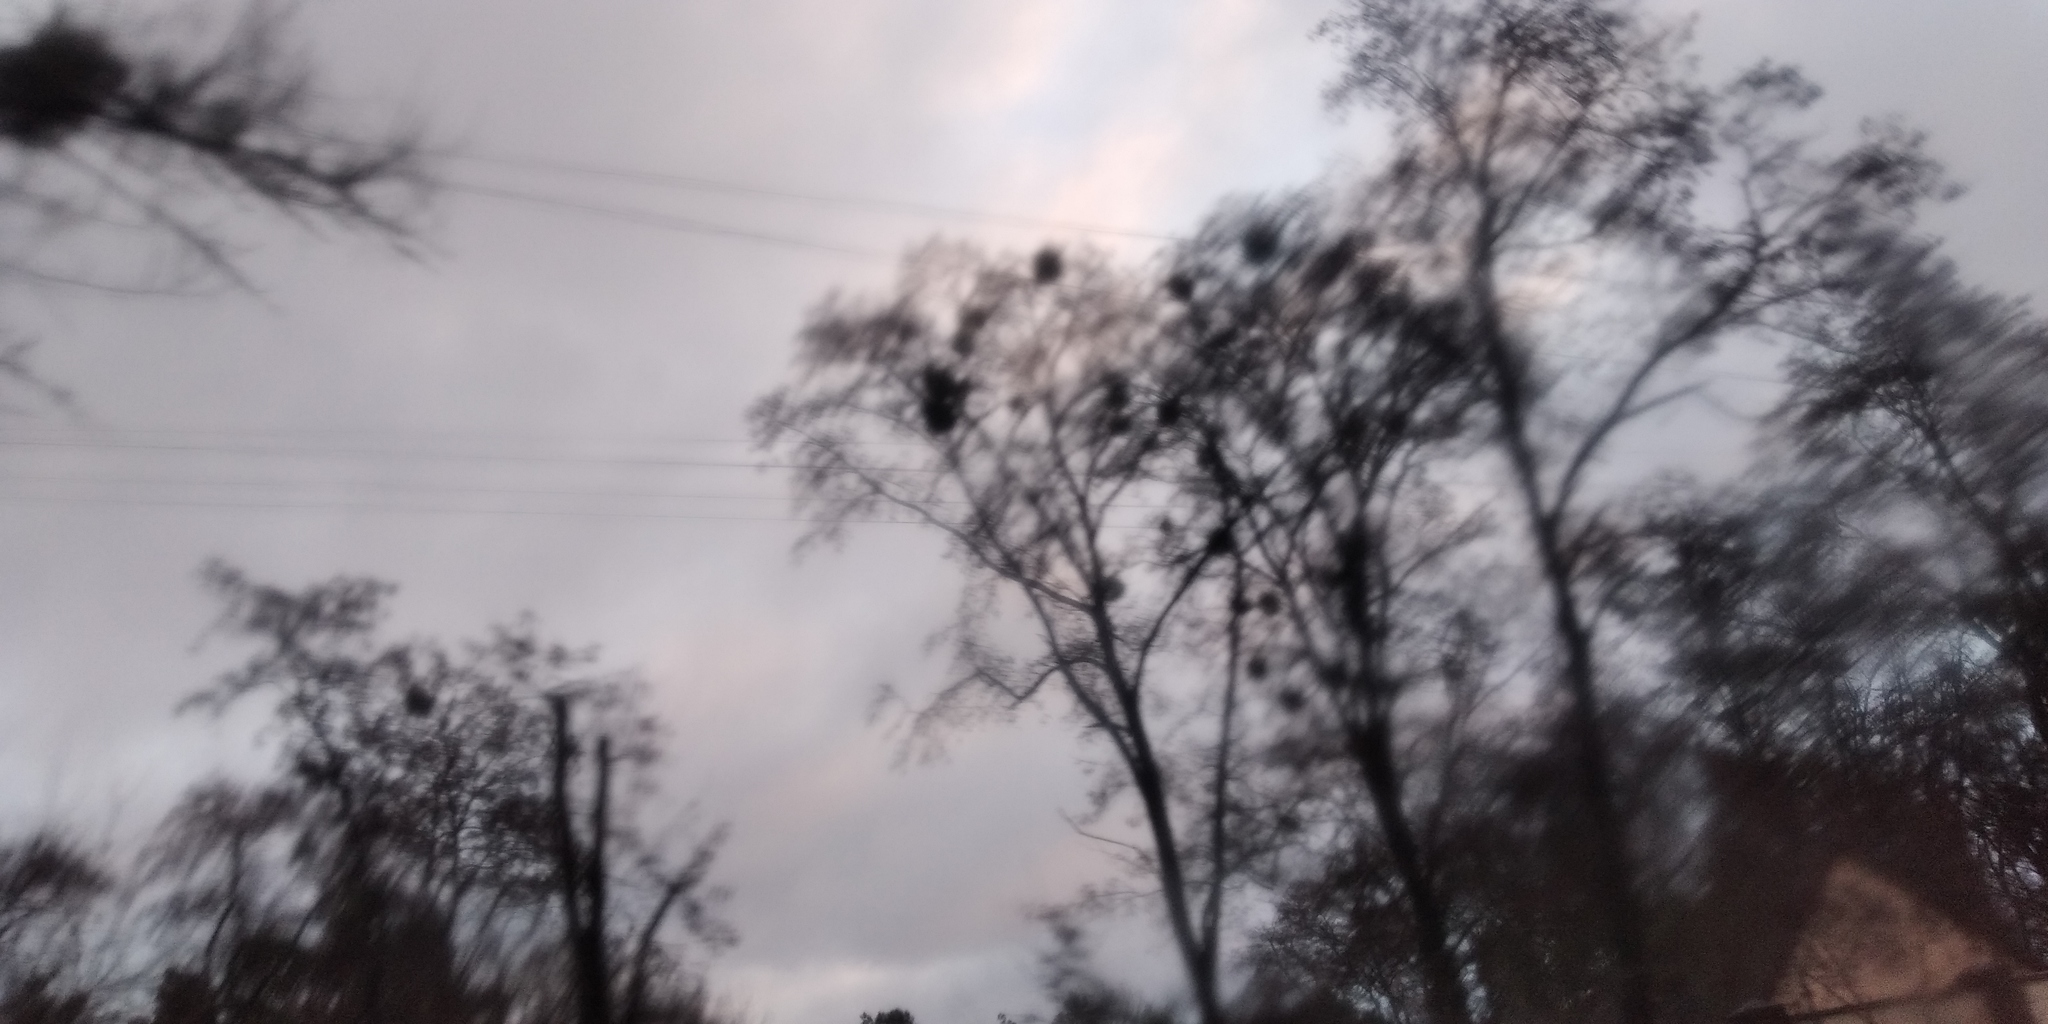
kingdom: Plantae
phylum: Tracheophyta
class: Magnoliopsida
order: Santalales
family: Viscaceae
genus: Viscum
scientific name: Viscum album
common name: Mistletoe
